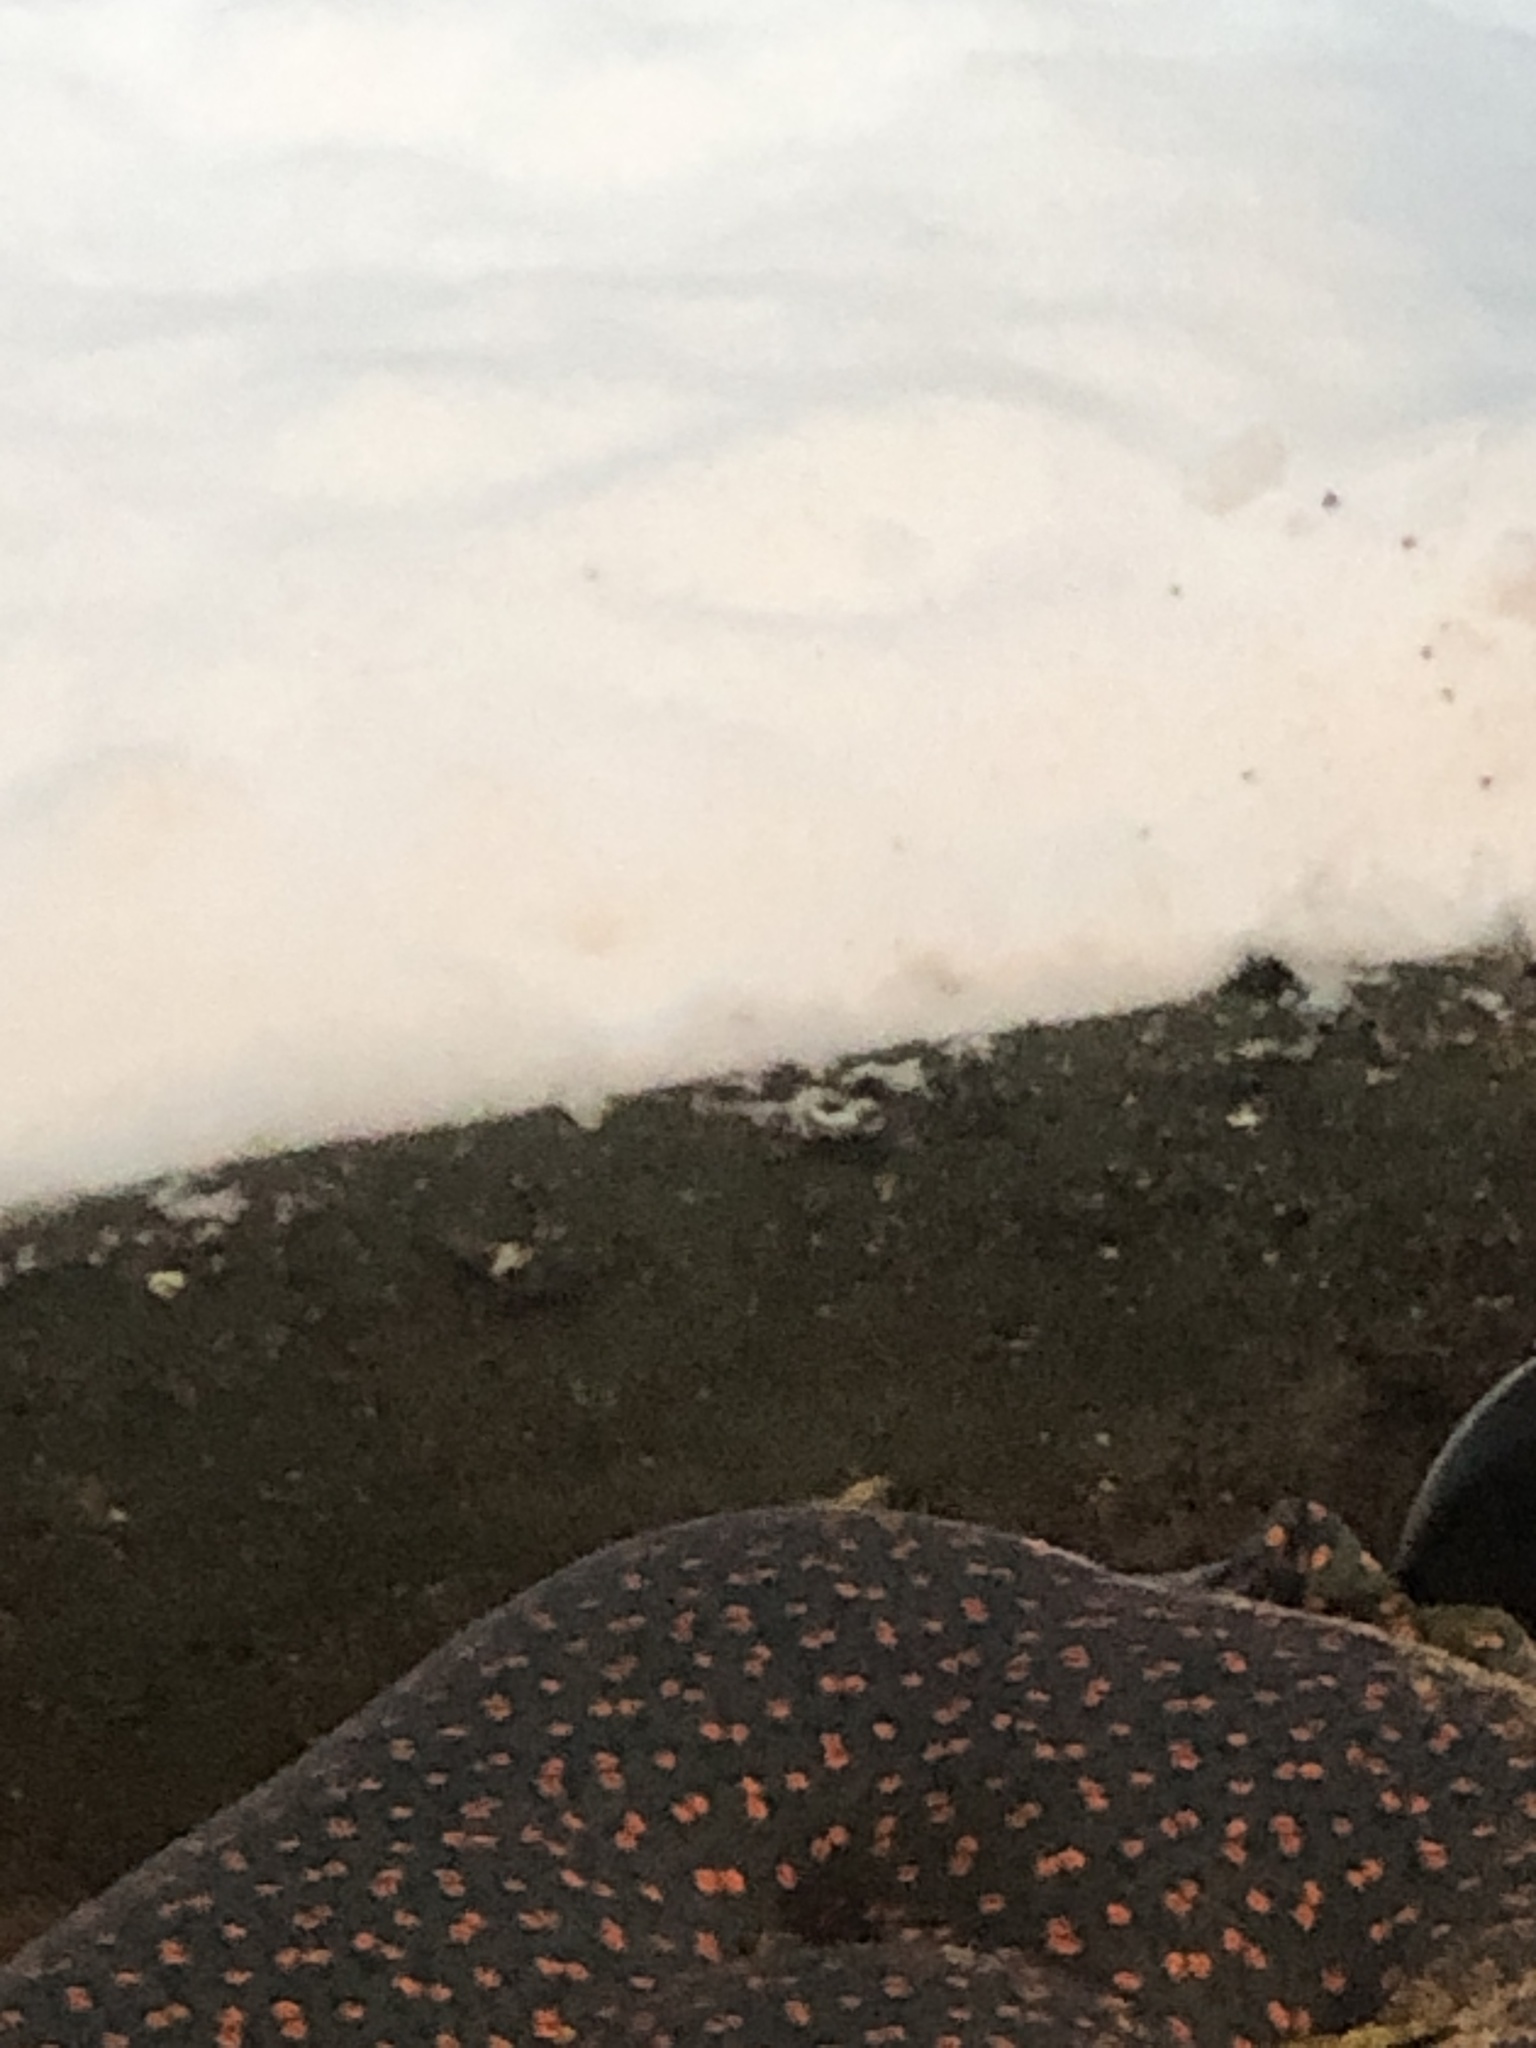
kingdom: Animalia
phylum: Chordata
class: Aves
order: Passeriformes
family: Passerellidae
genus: Passerella
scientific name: Passerella iliaca
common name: Fox sparrow
